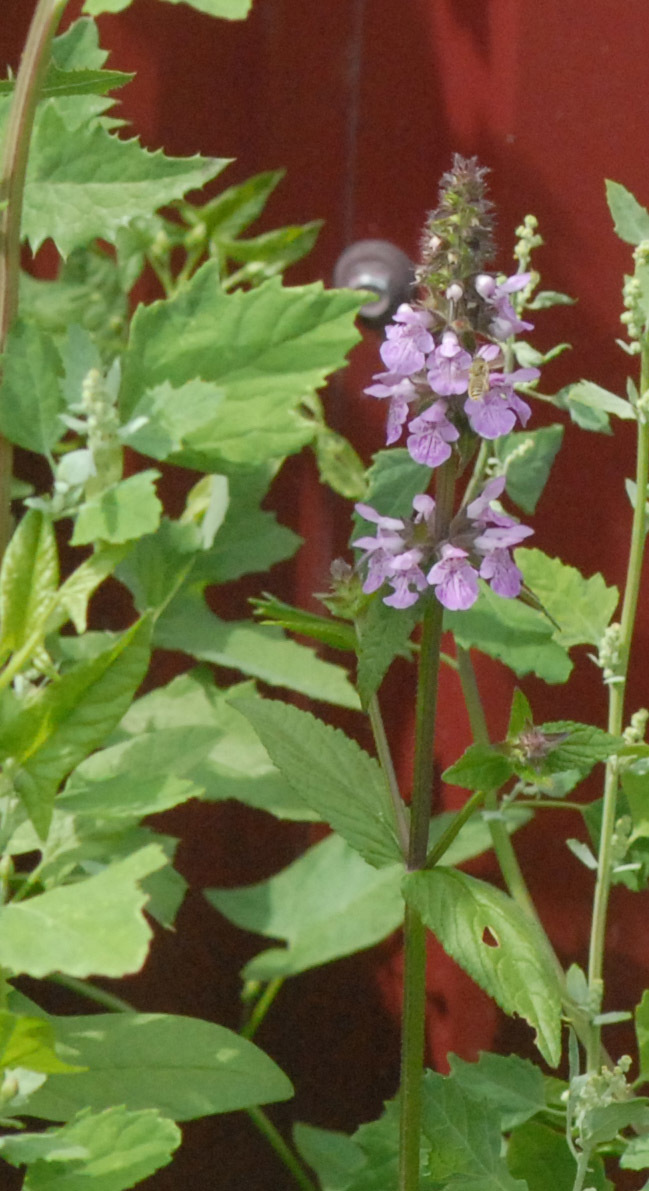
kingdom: Plantae
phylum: Tracheophyta
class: Magnoliopsida
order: Lamiales
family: Lamiaceae
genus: Stachys
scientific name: Stachys palustris
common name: Marsh woundwort
